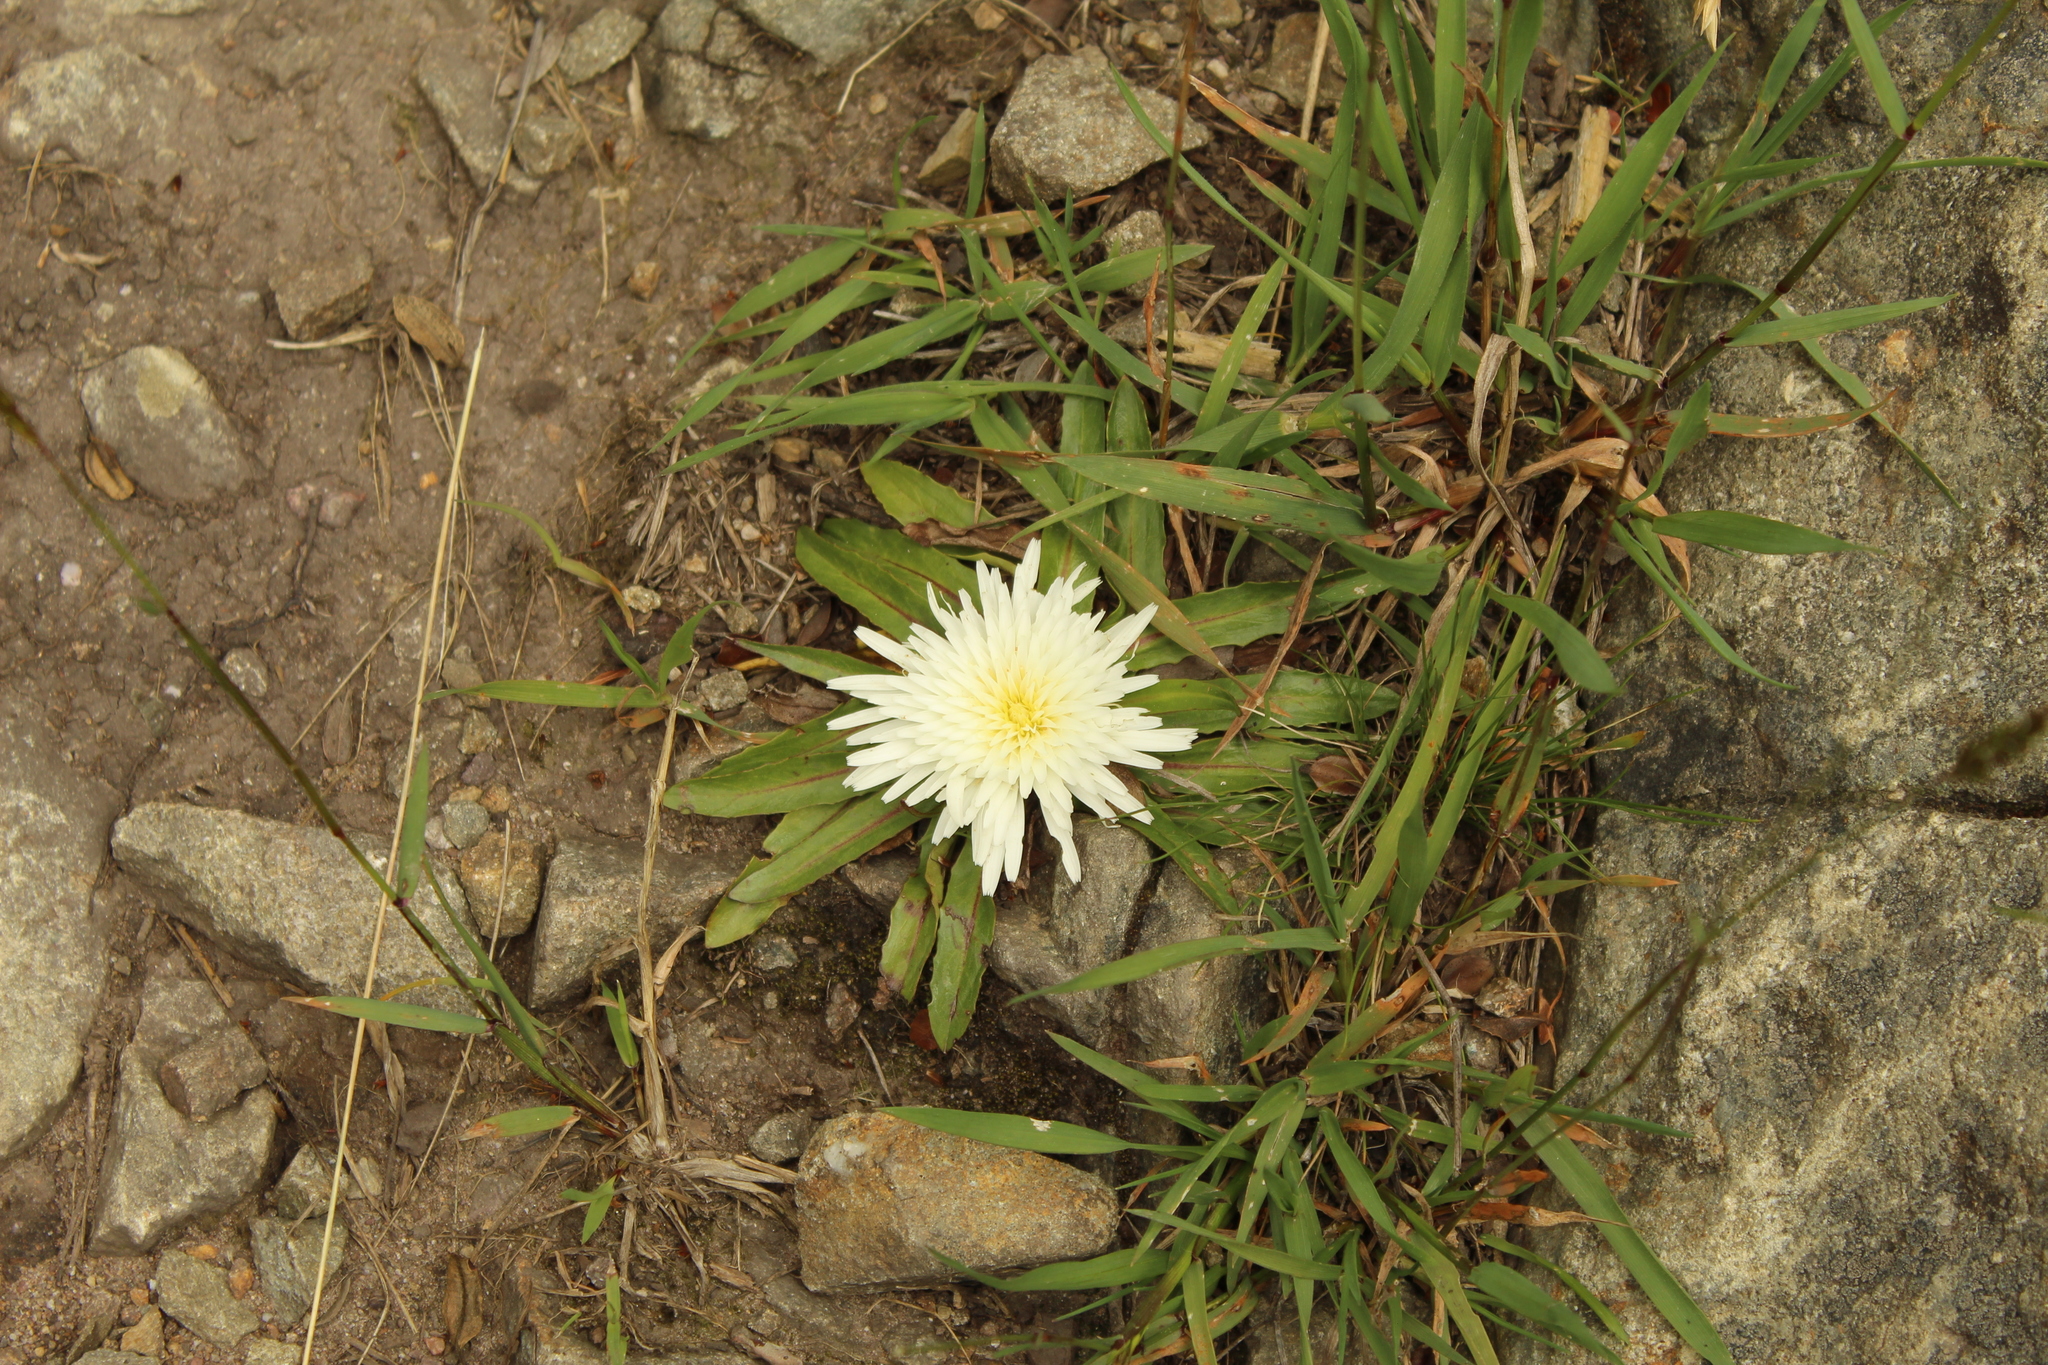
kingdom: Plantae
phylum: Tracheophyta
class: Magnoliopsida
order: Asterales
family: Asteraceae
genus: Hypochaeris
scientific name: Hypochaeris sessiliflora
